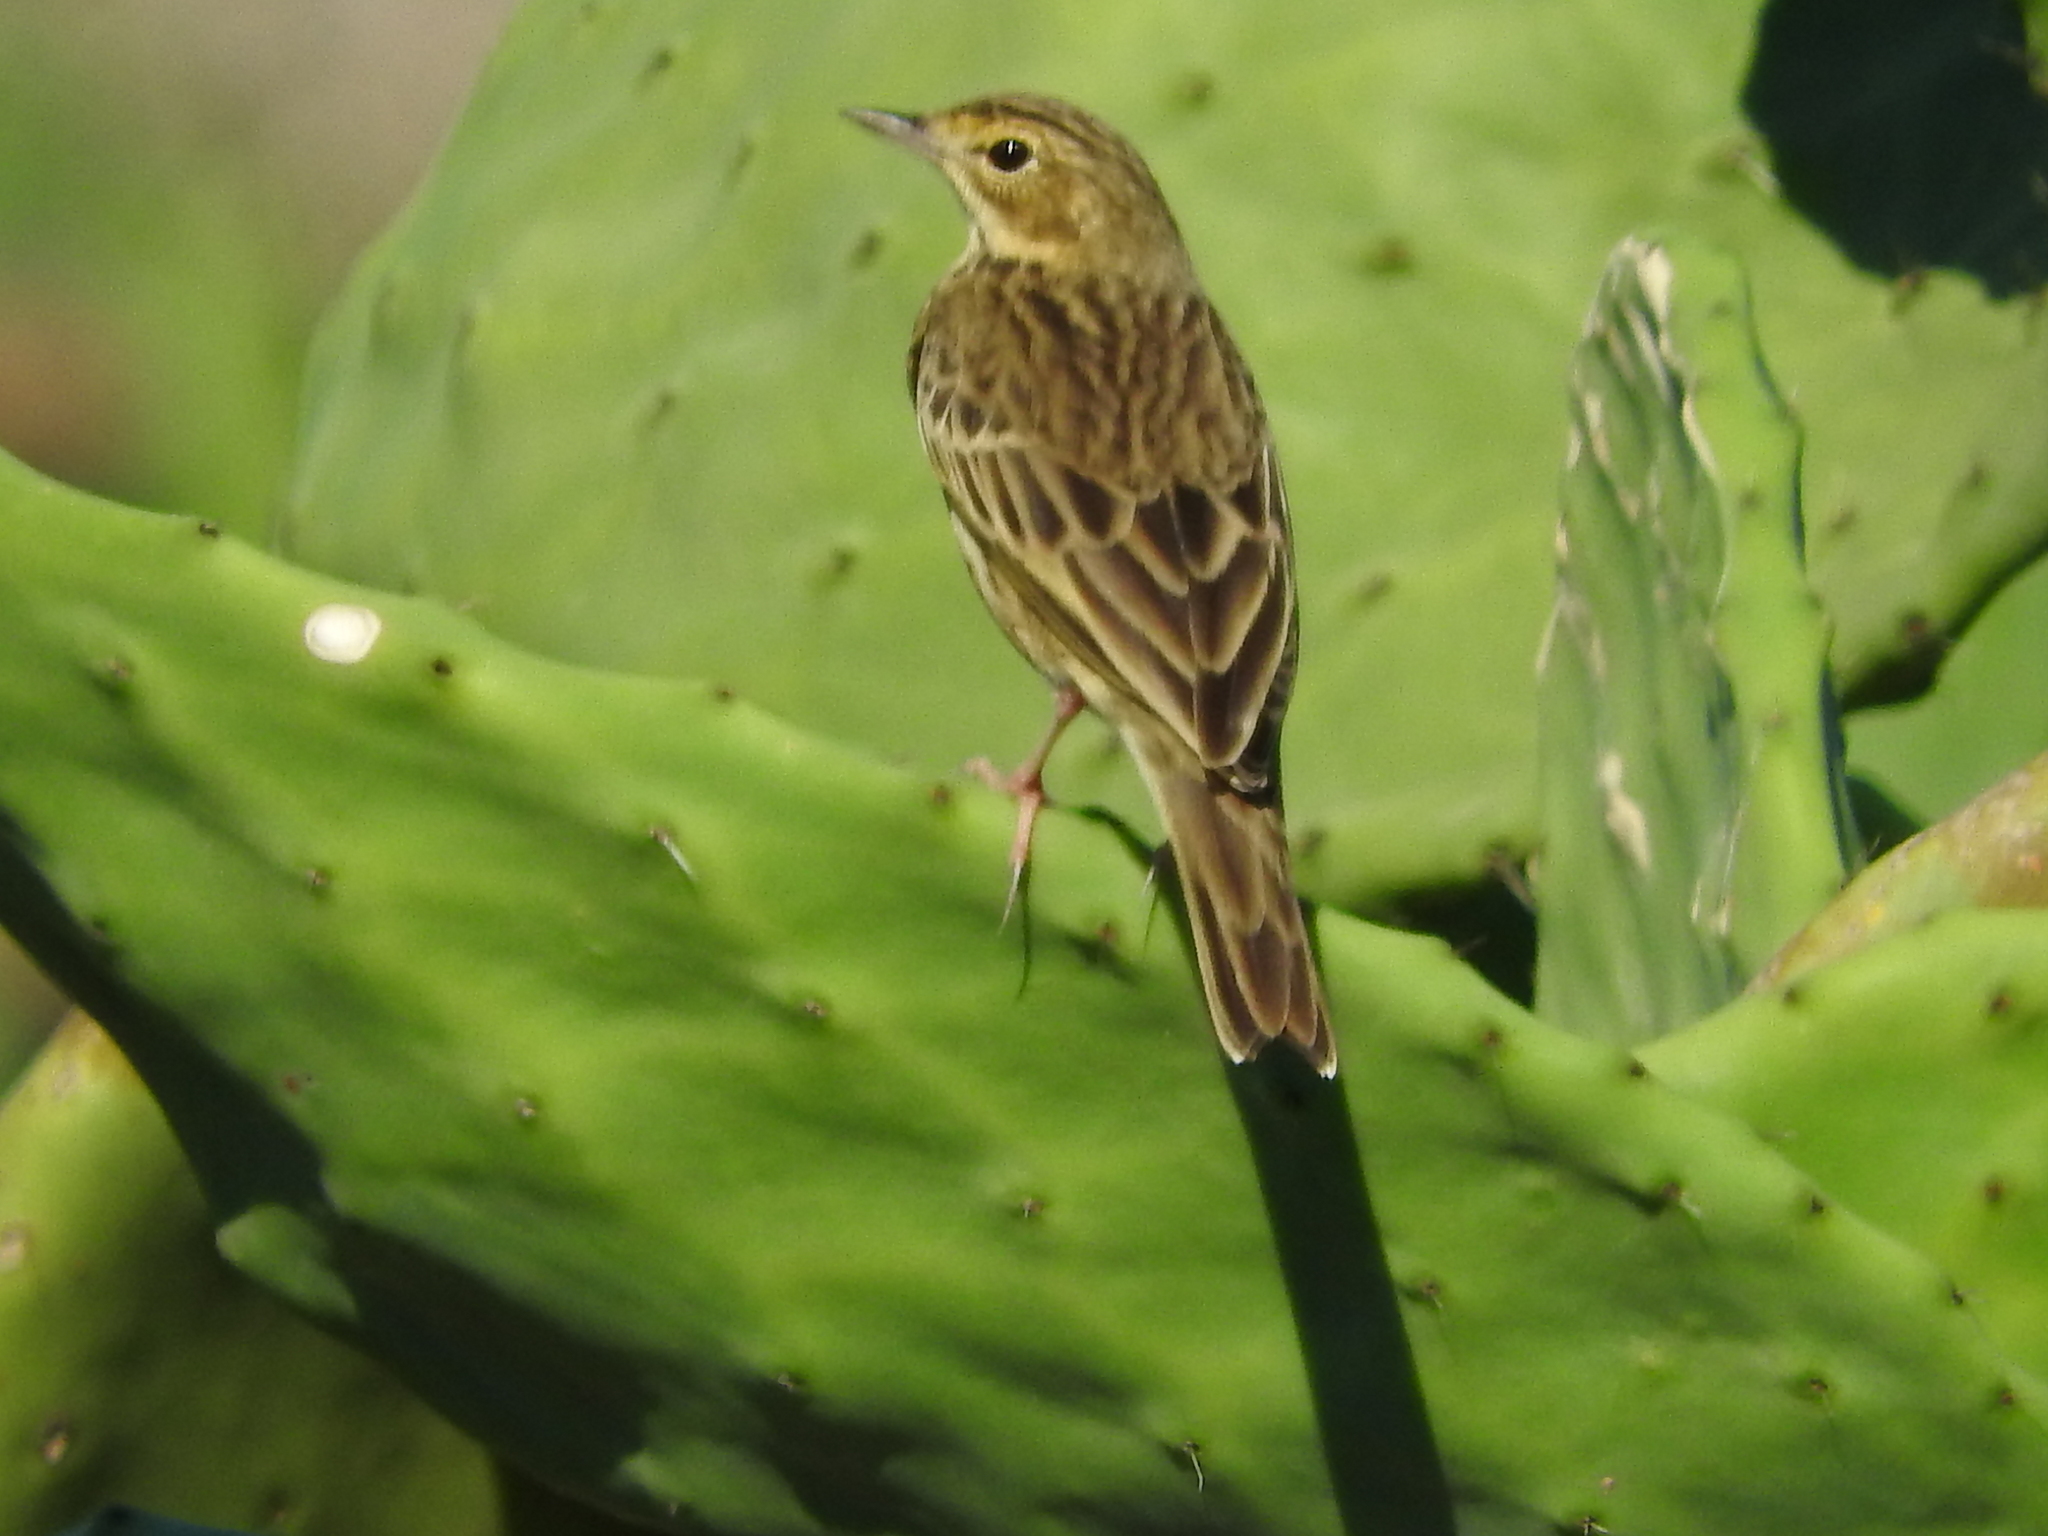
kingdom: Animalia
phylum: Chordata
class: Aves
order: Passeriformes
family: Motacillidae
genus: Anthus
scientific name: Anthus pratensis
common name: Meadow pipit
